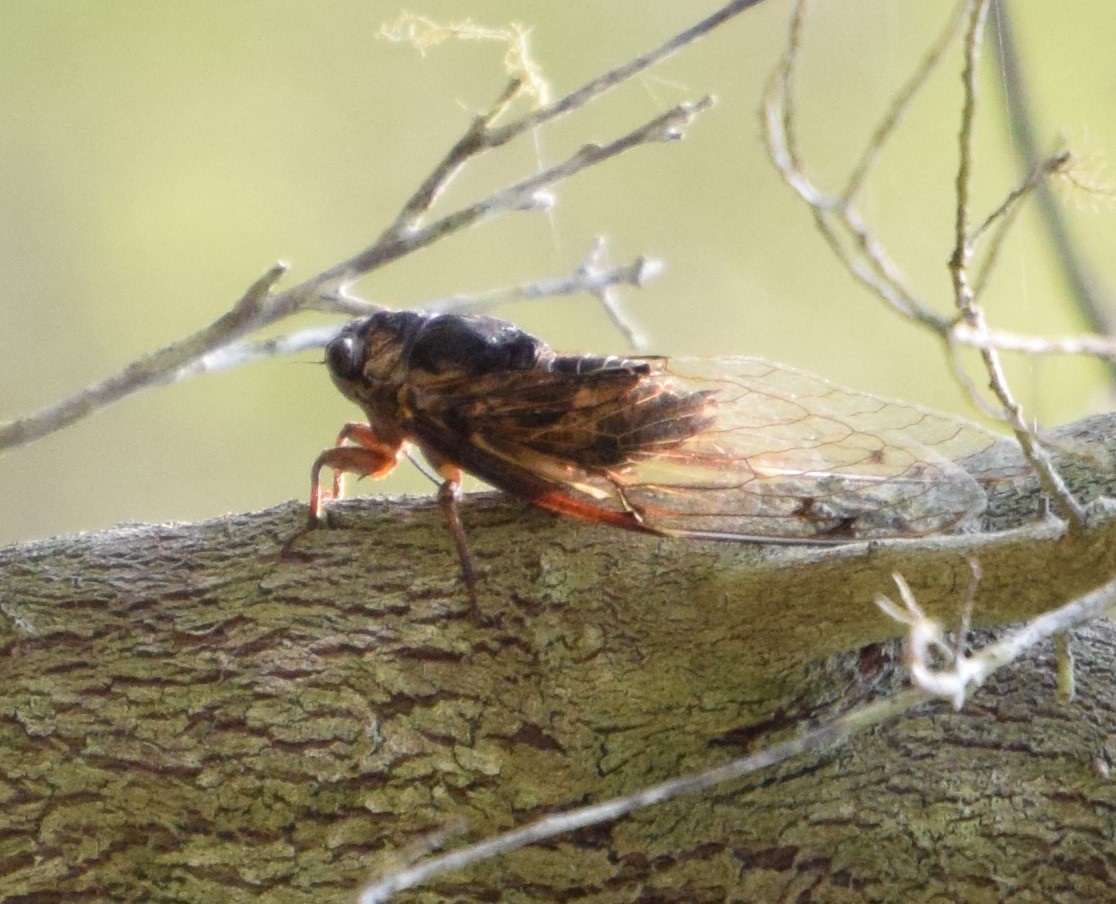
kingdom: Animalia
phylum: Arthropoda
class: Insecta
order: Hemiptera
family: Cicadidae
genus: Aleeta
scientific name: Aleeta curvicosta
